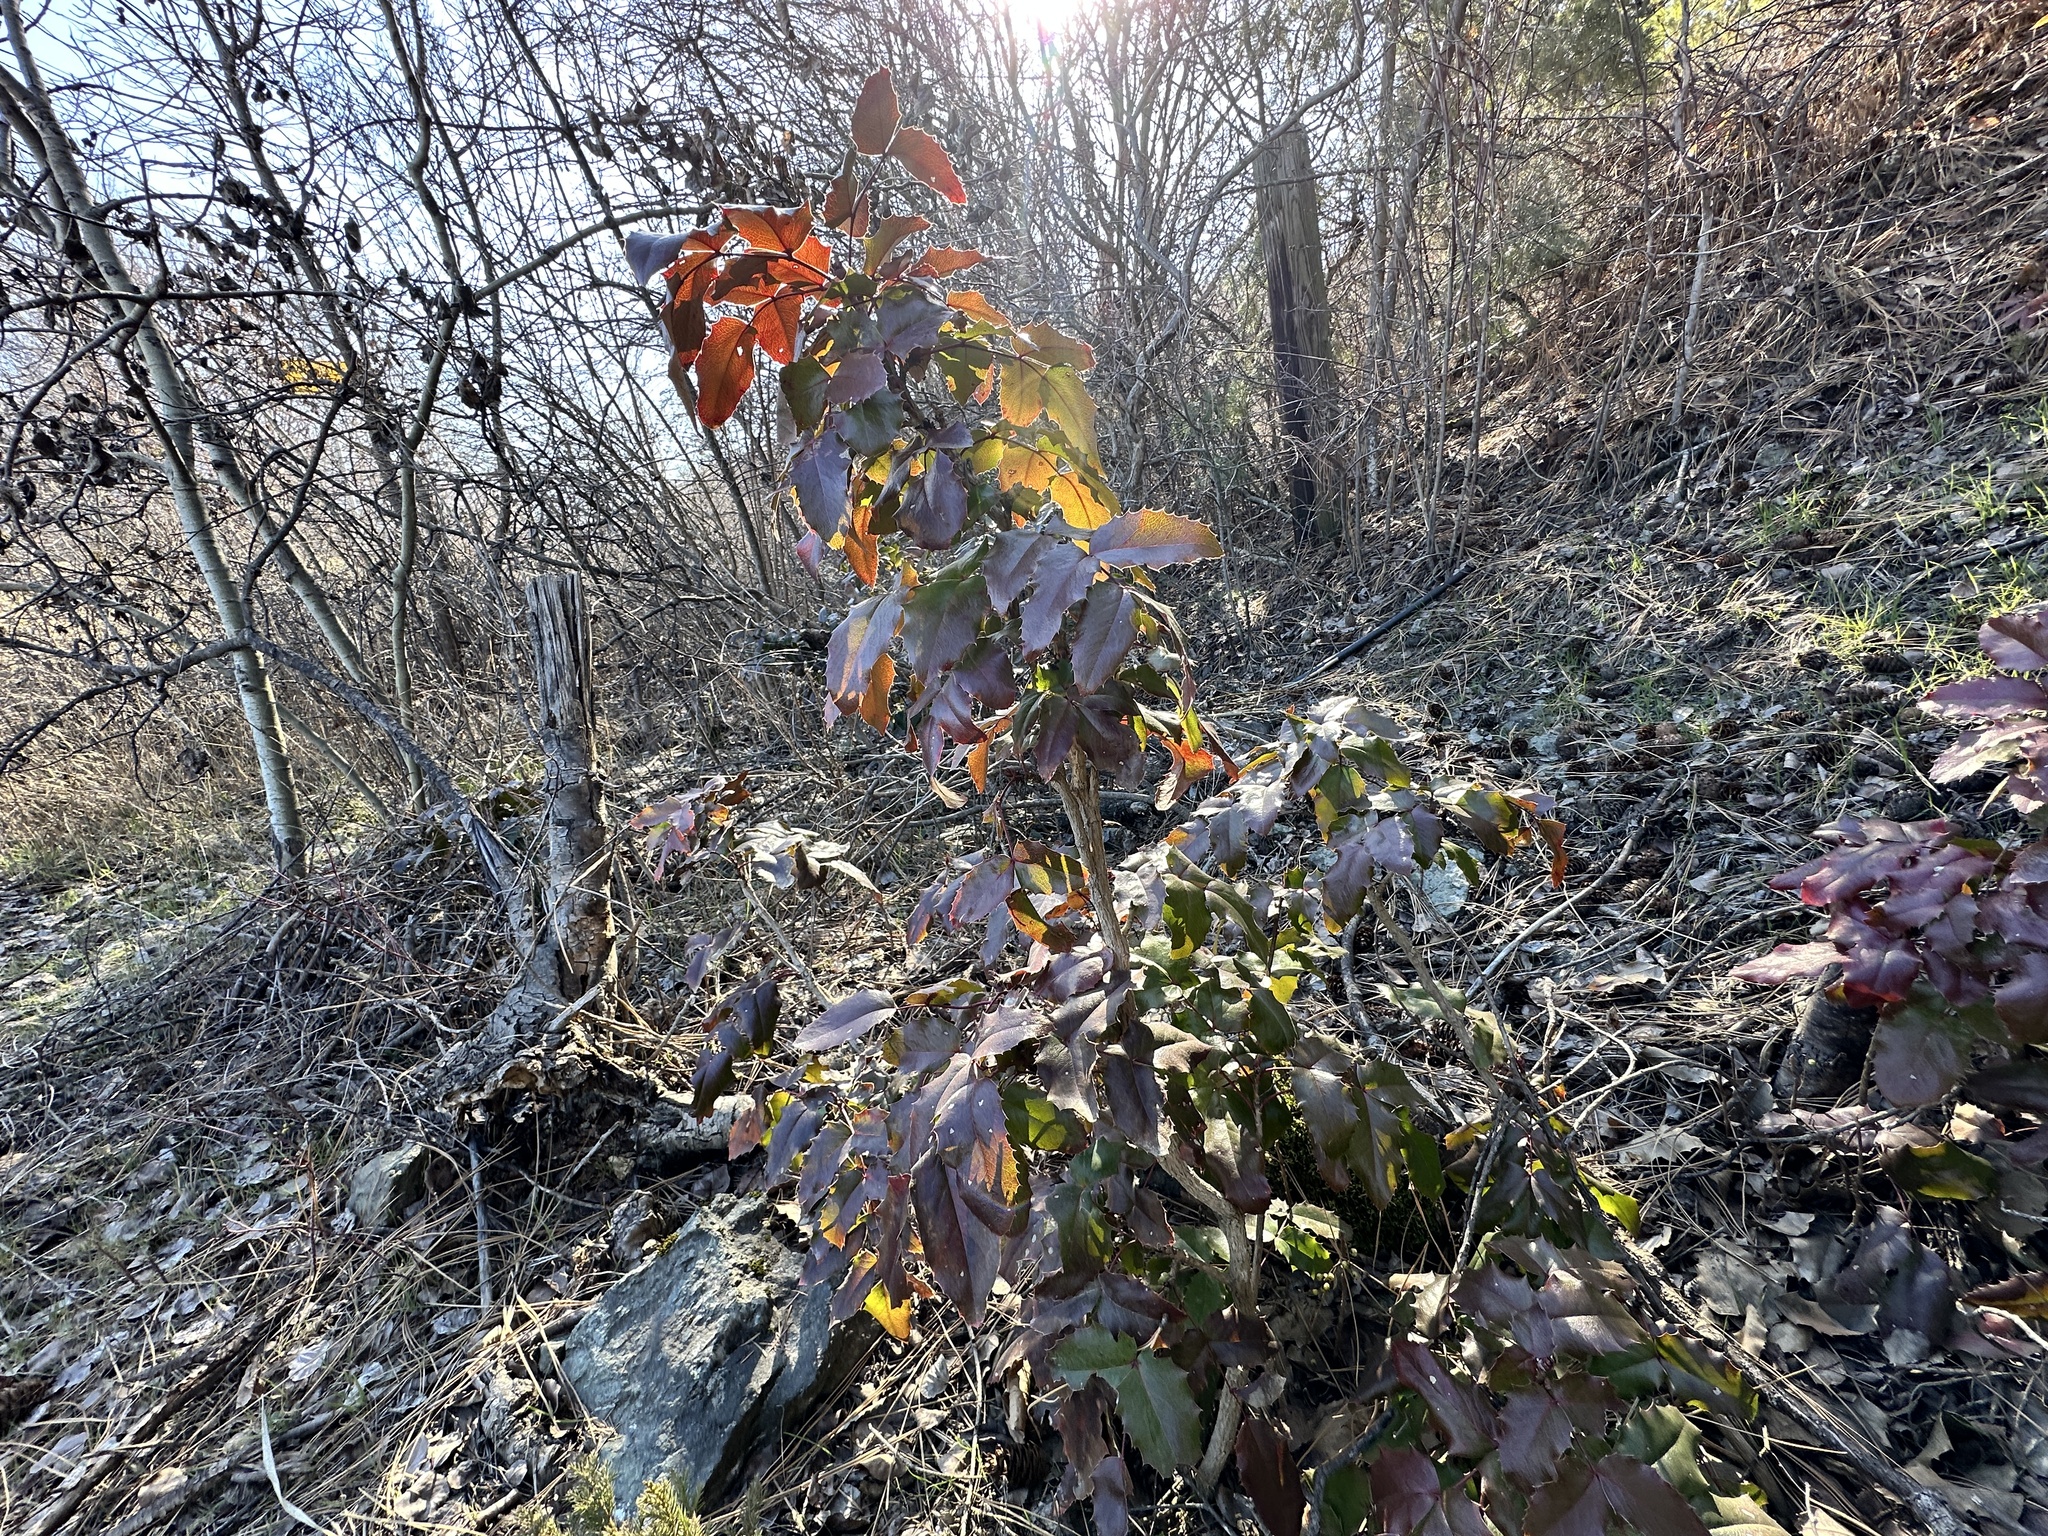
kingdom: Plantae
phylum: Tracheophyta
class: Magnoliopsida
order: Ranunculales
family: Berberidaceae
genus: Mahonia
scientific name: Mahonia aquifolium
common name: Oregon-grape
